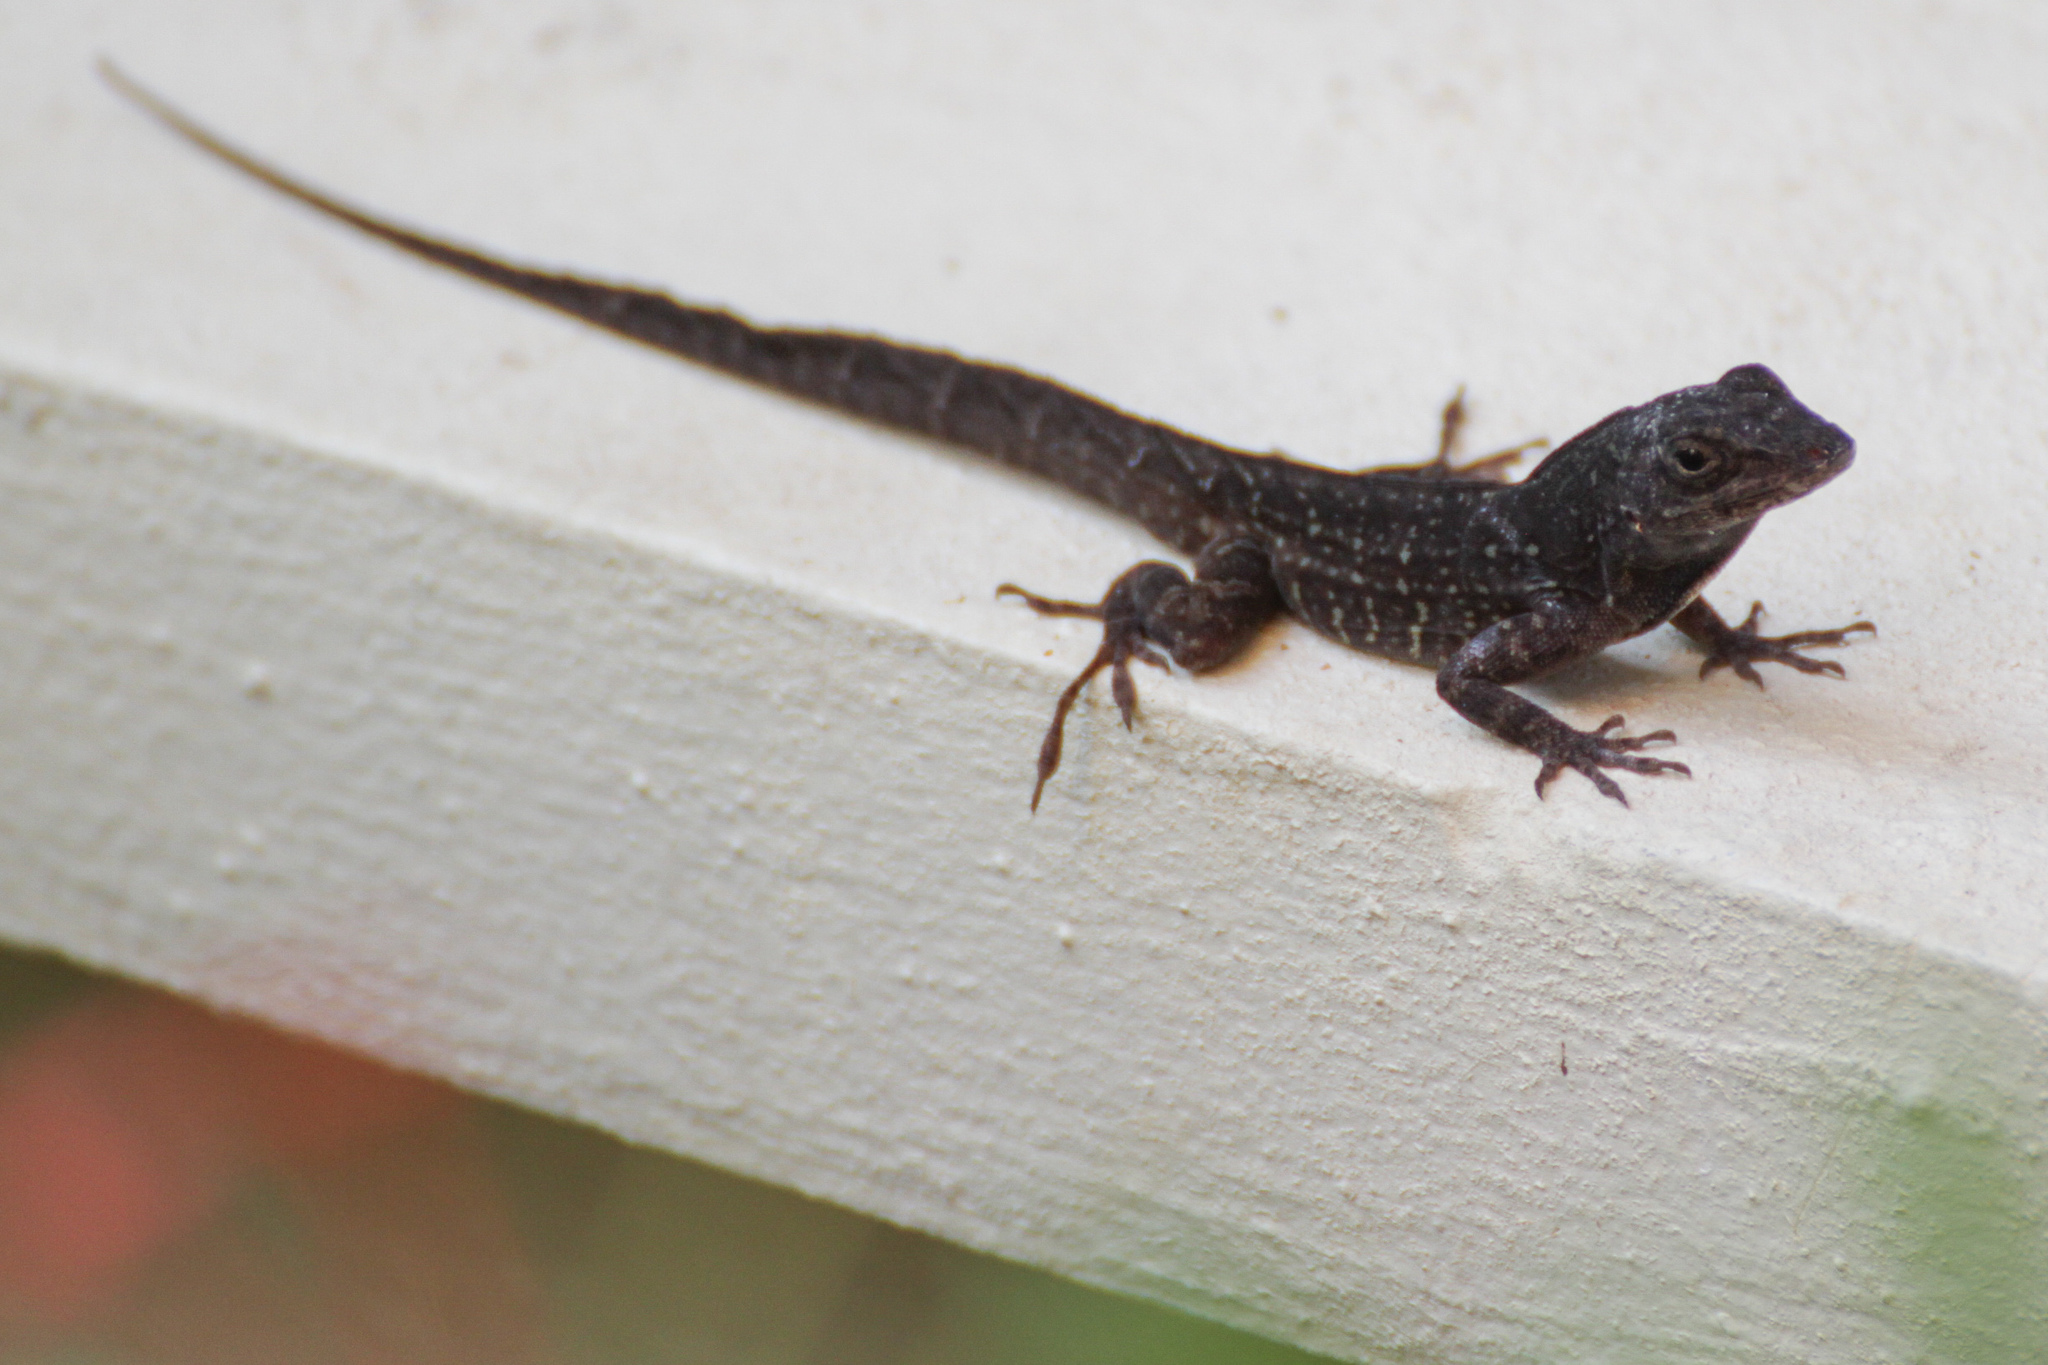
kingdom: Animalia
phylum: Chordata
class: Squamata
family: Dactyloidae
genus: Anolis
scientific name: Anolis sagrei
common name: Brown anole
